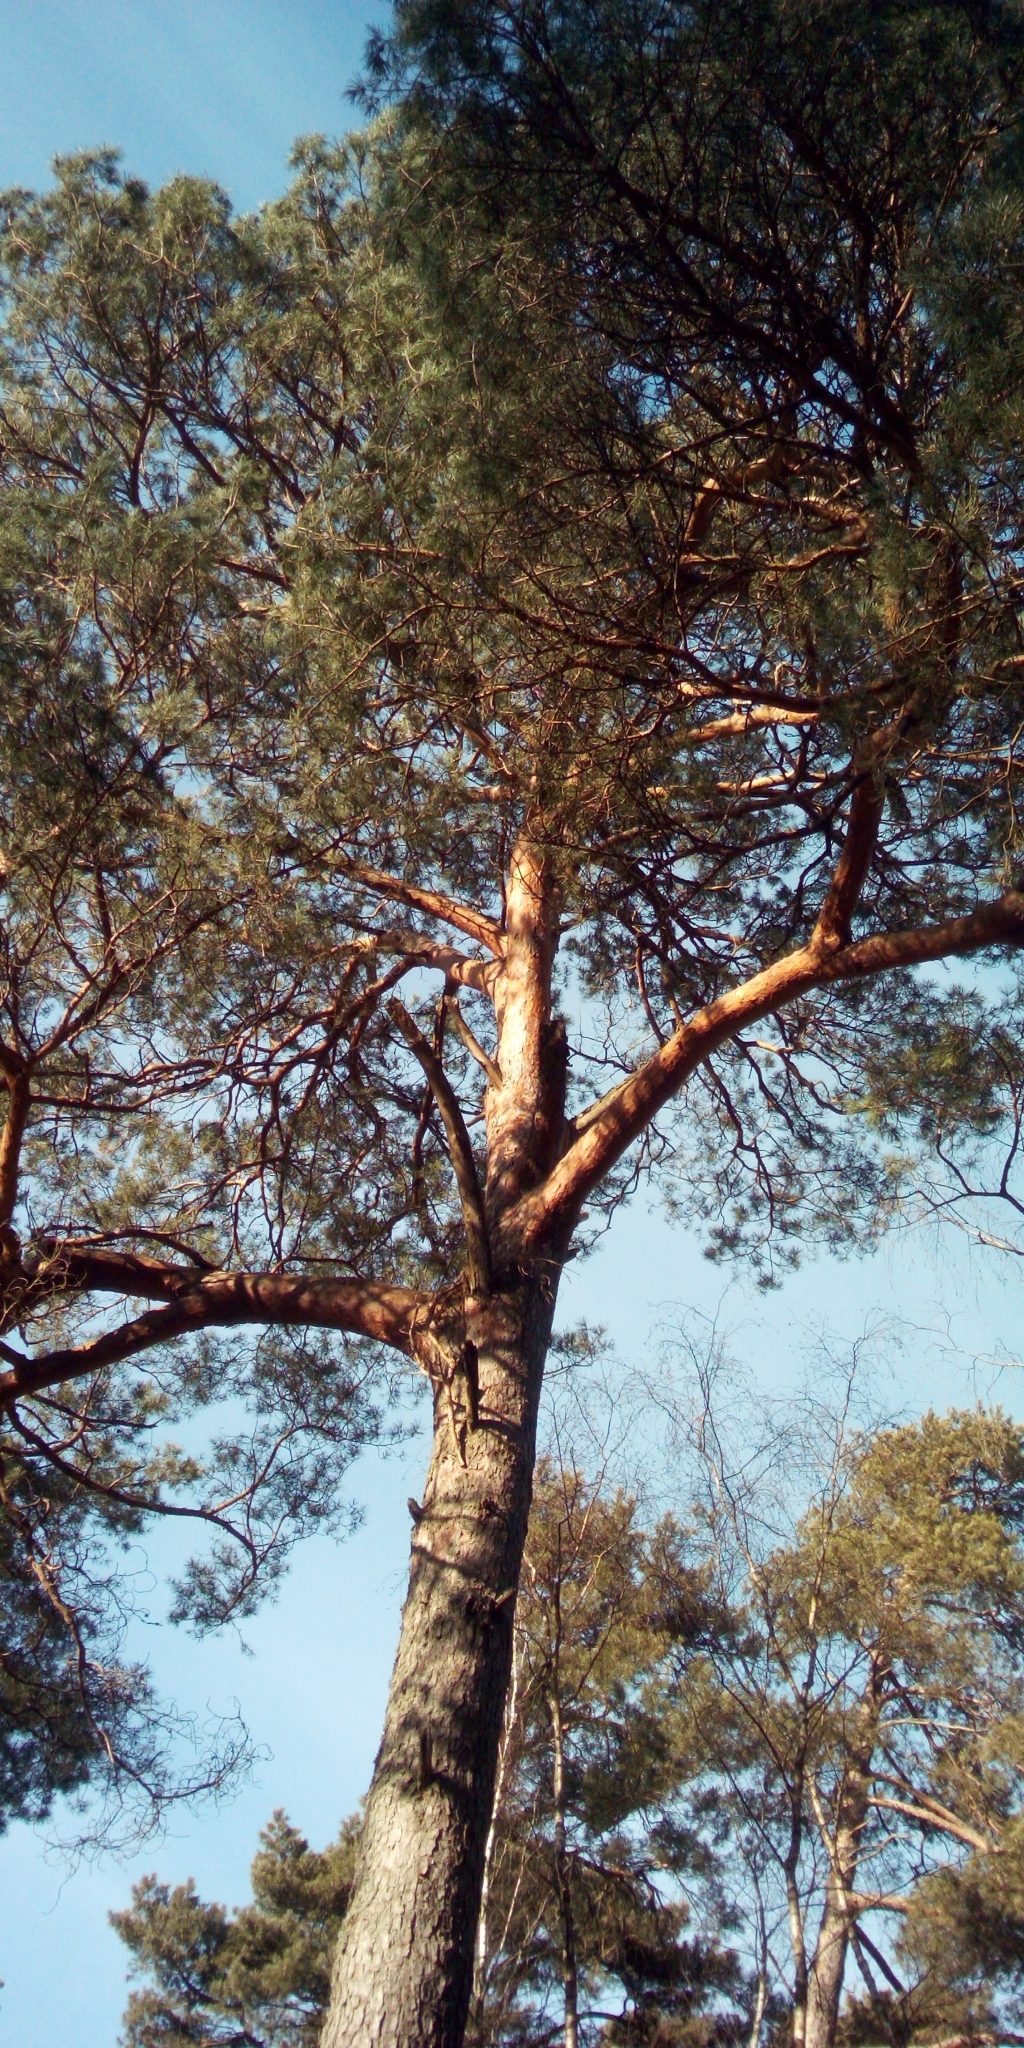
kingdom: Plantae
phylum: Tracheophyta
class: Pinopsida
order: Pinales
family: Pinaceae
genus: Pinus
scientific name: Pinus sylvestris
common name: Scots pine
